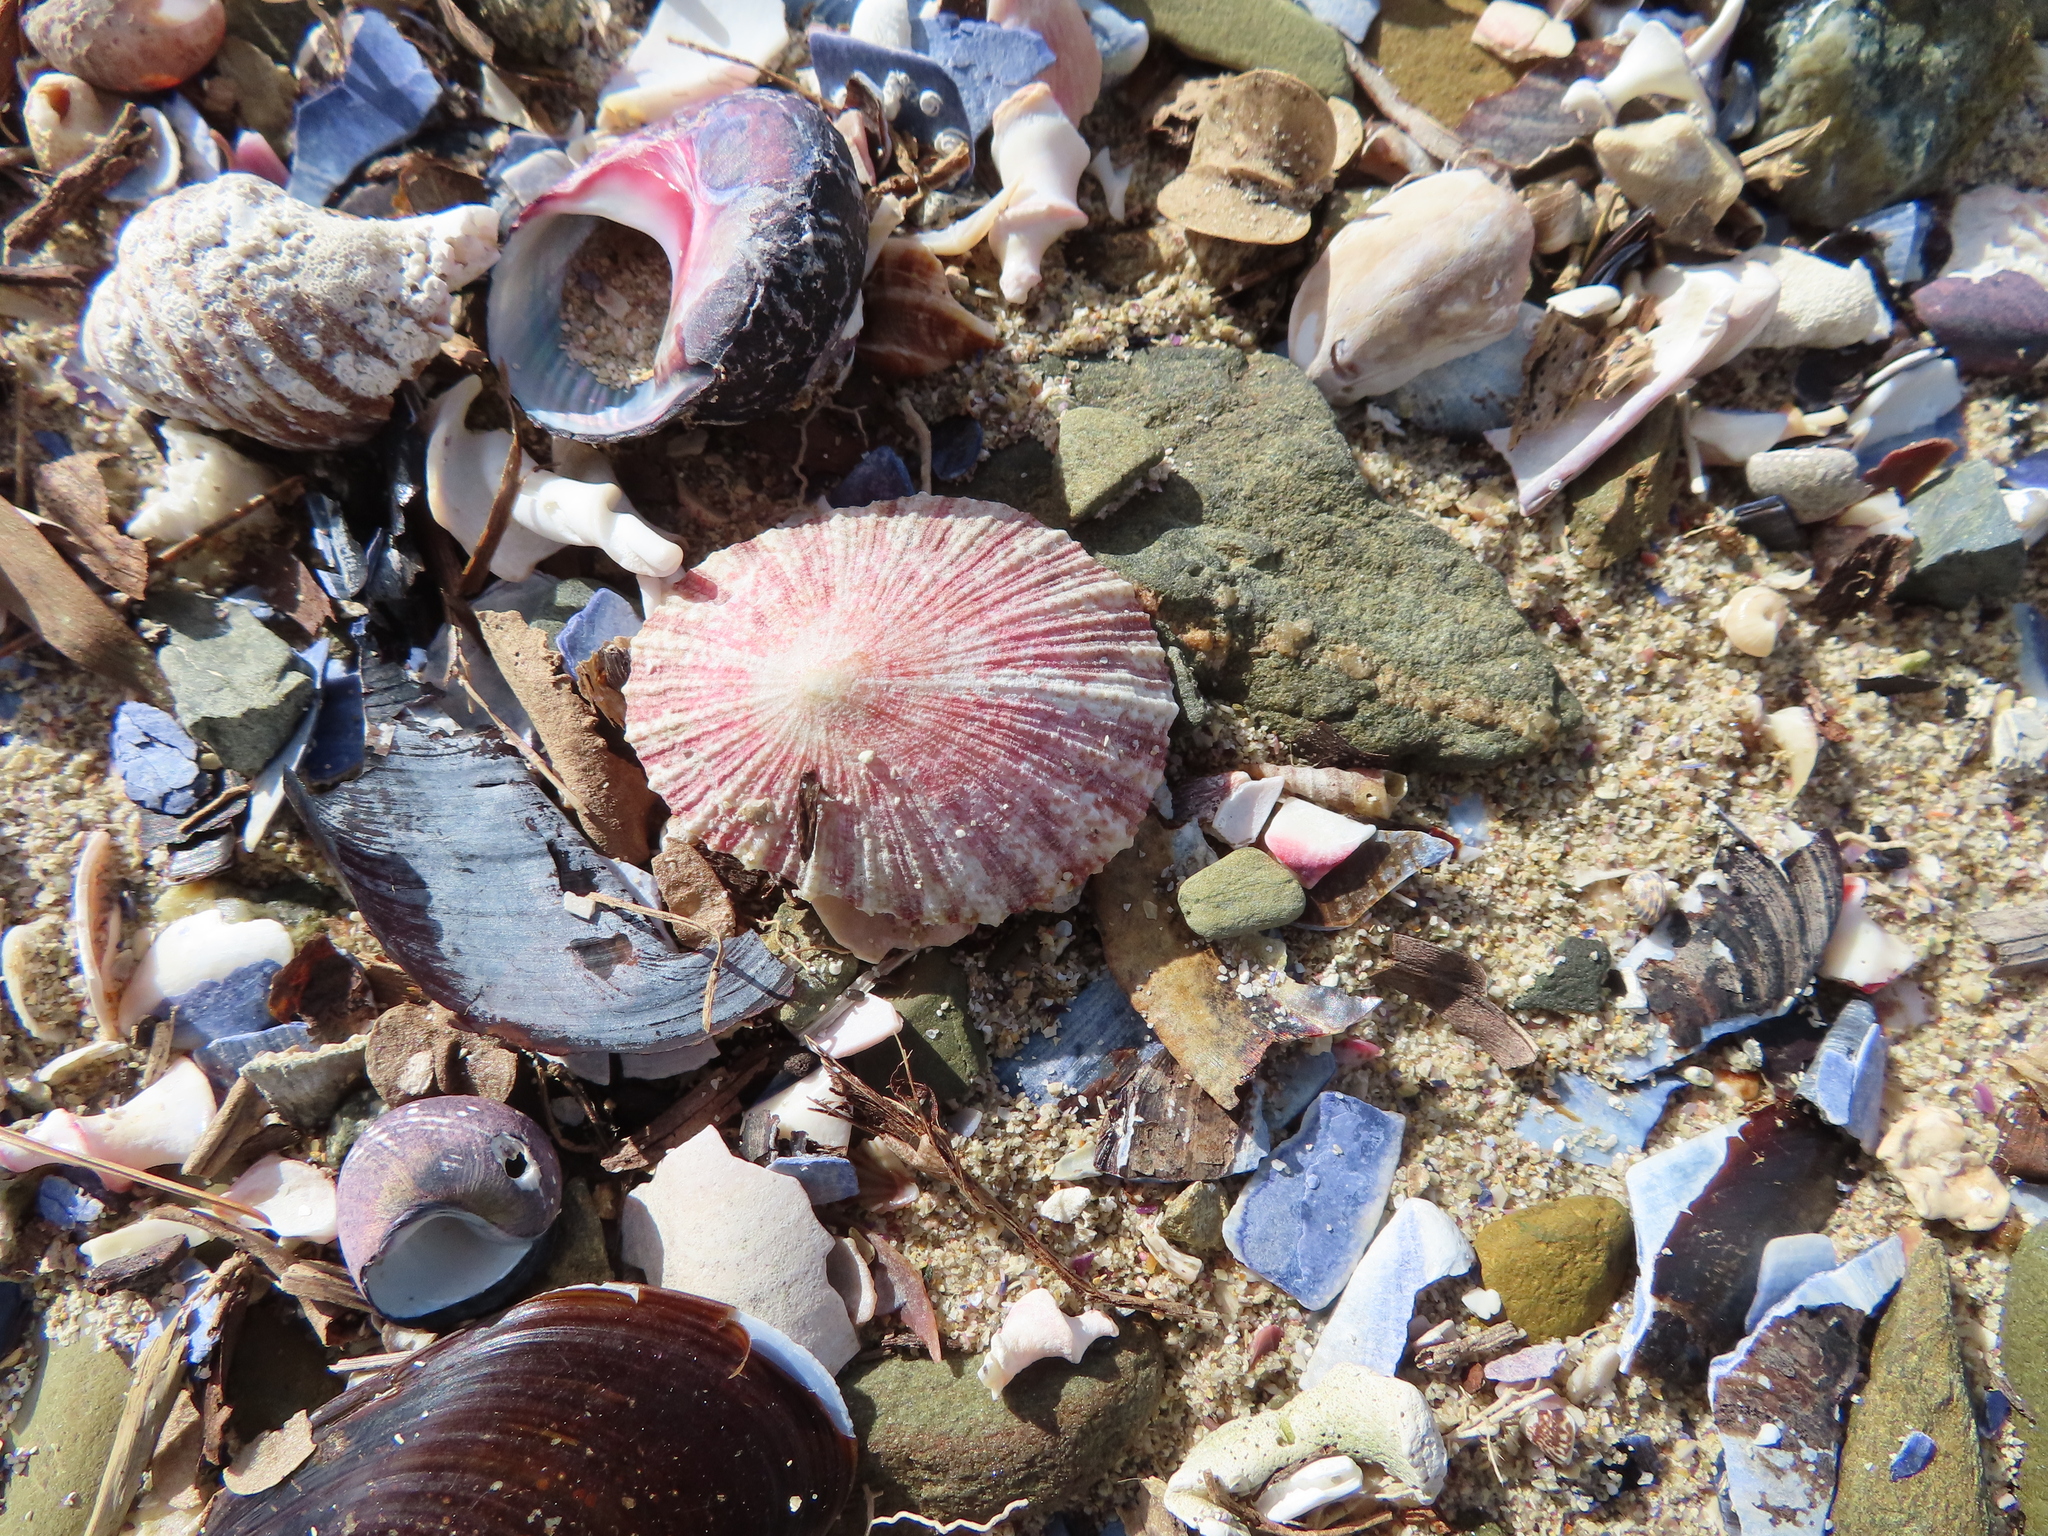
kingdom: Animalia
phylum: Mollusca
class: Gastropoda
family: Patellidae
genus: Cymbula
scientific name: Cymbula miniata
